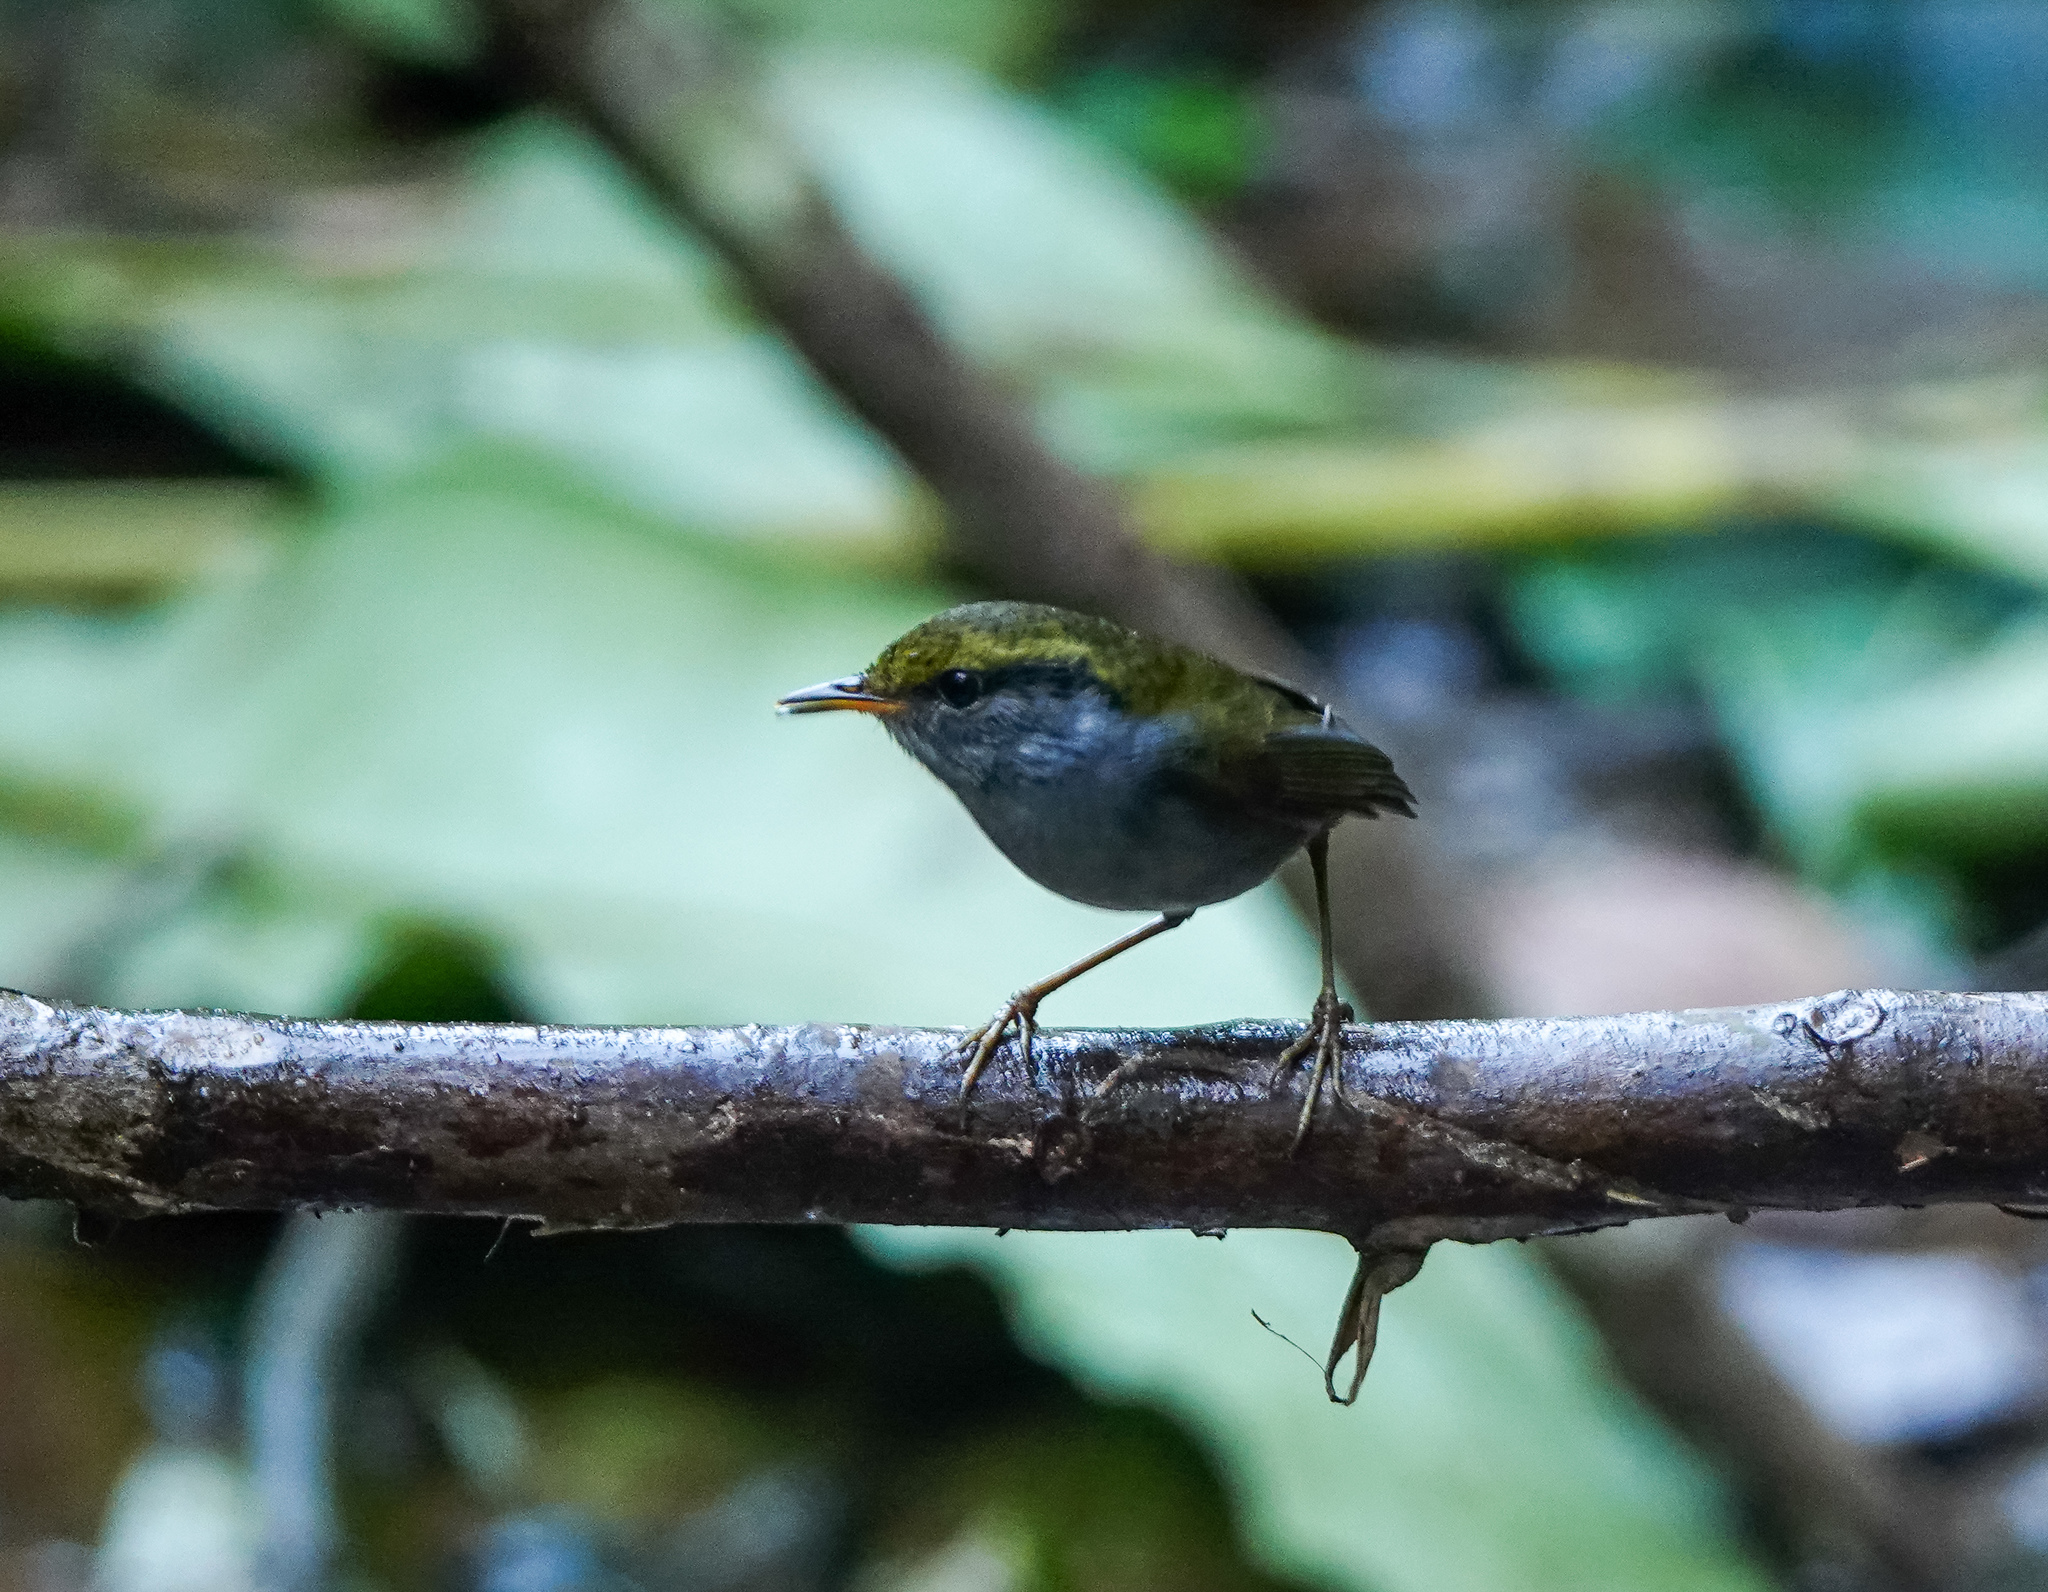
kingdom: Animalia
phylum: Chordata
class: Aves
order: Passeriformes
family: Cettiidae
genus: Tesia
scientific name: Tesia cyaniventer
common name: Grey-bellied tesia
